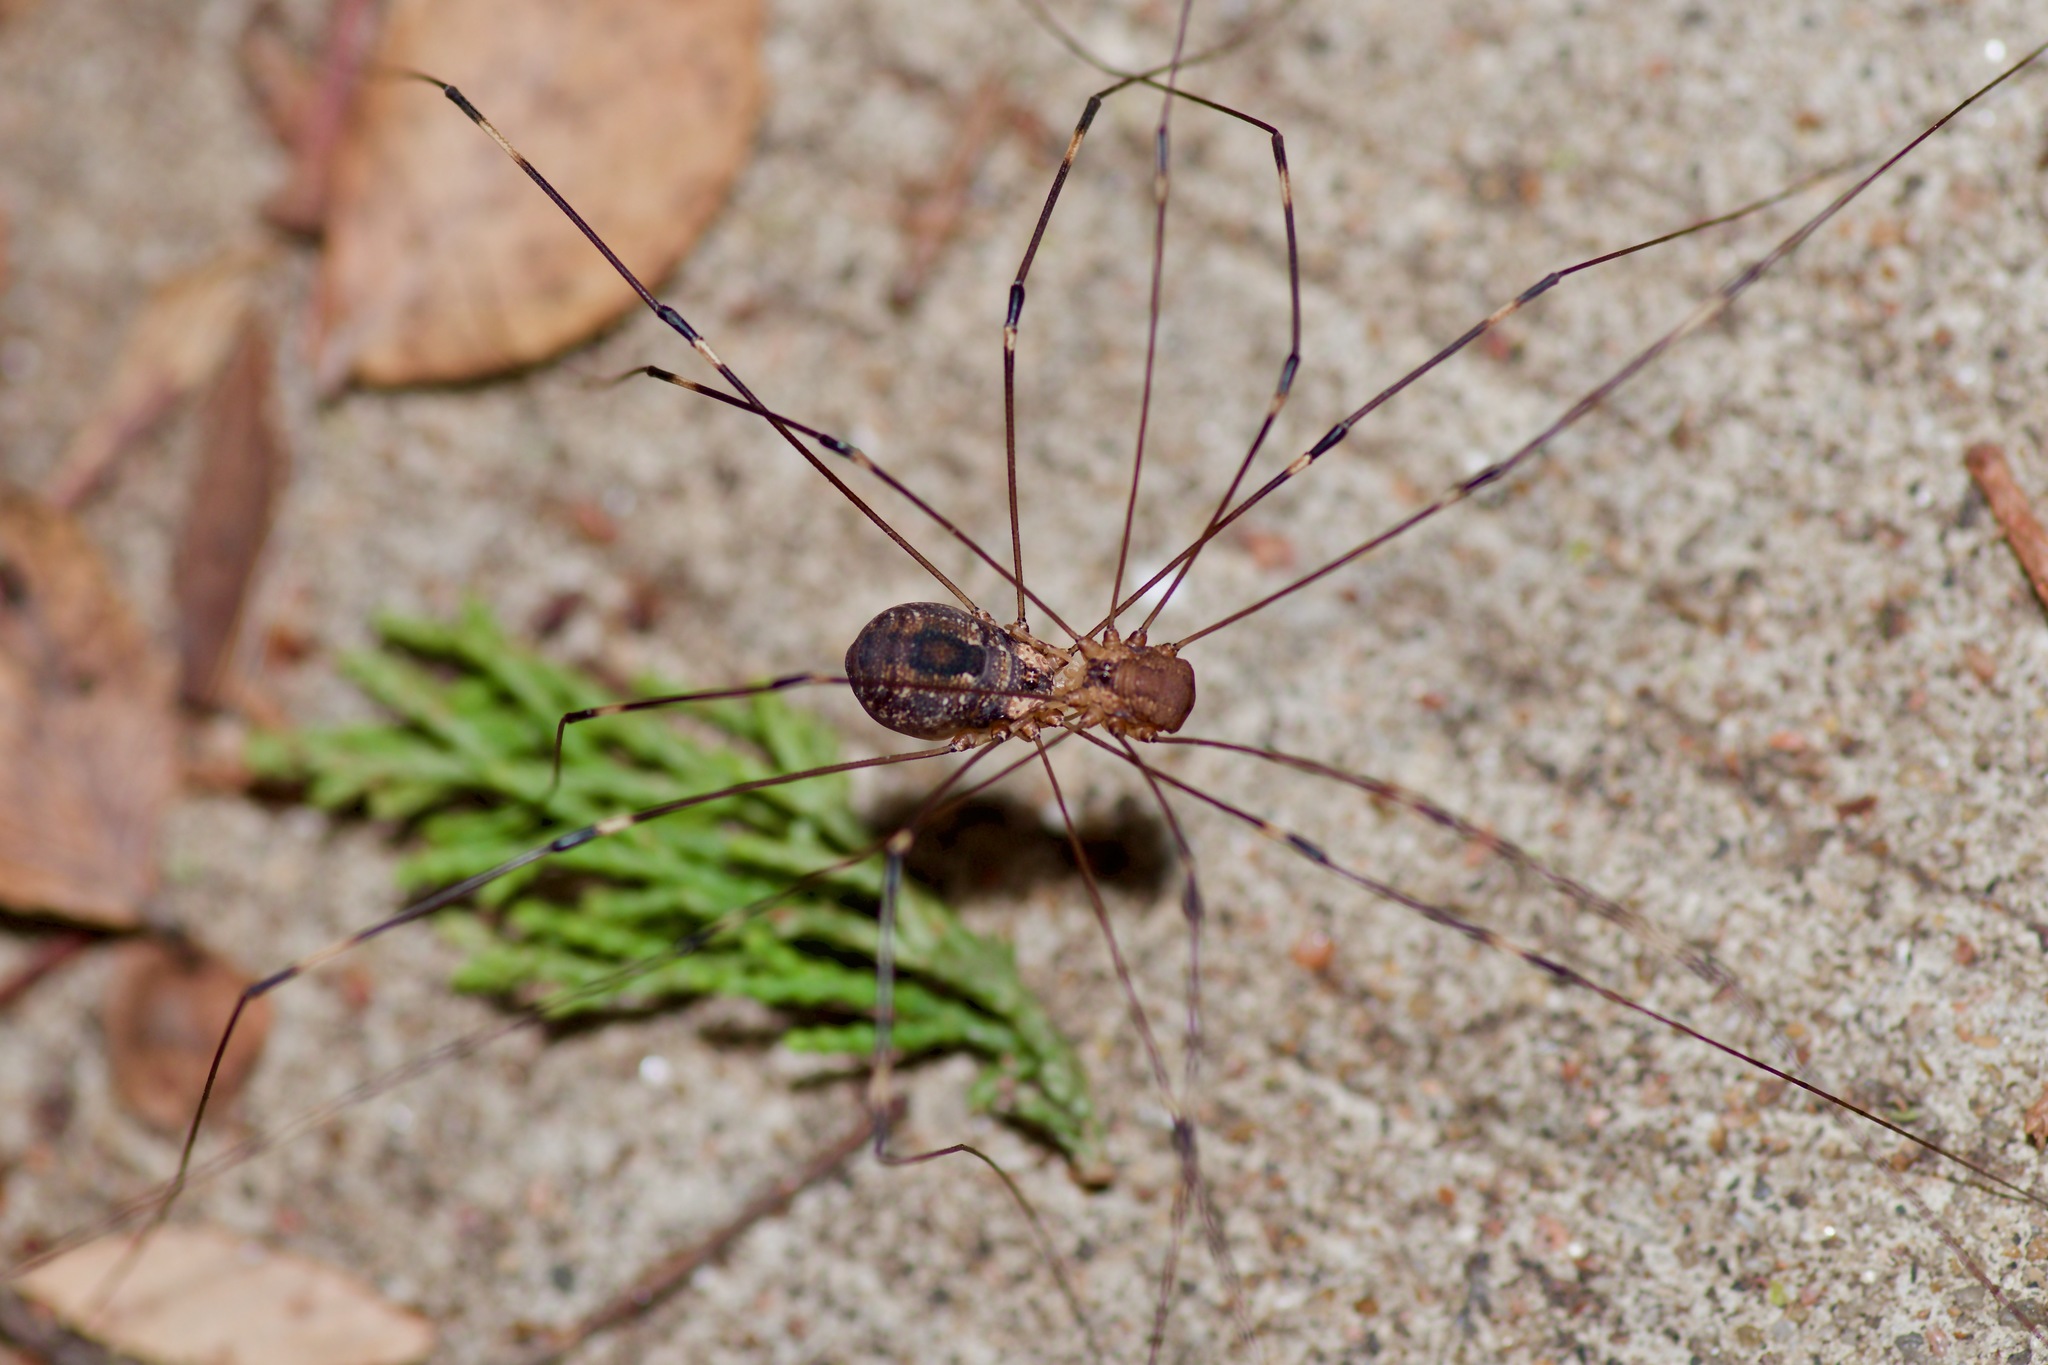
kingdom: Animalia
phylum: Arthropoda
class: Arachnida
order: Opiliones
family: Sclerosomatidae
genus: Leiobunum
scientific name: Leiobunum townsendi
